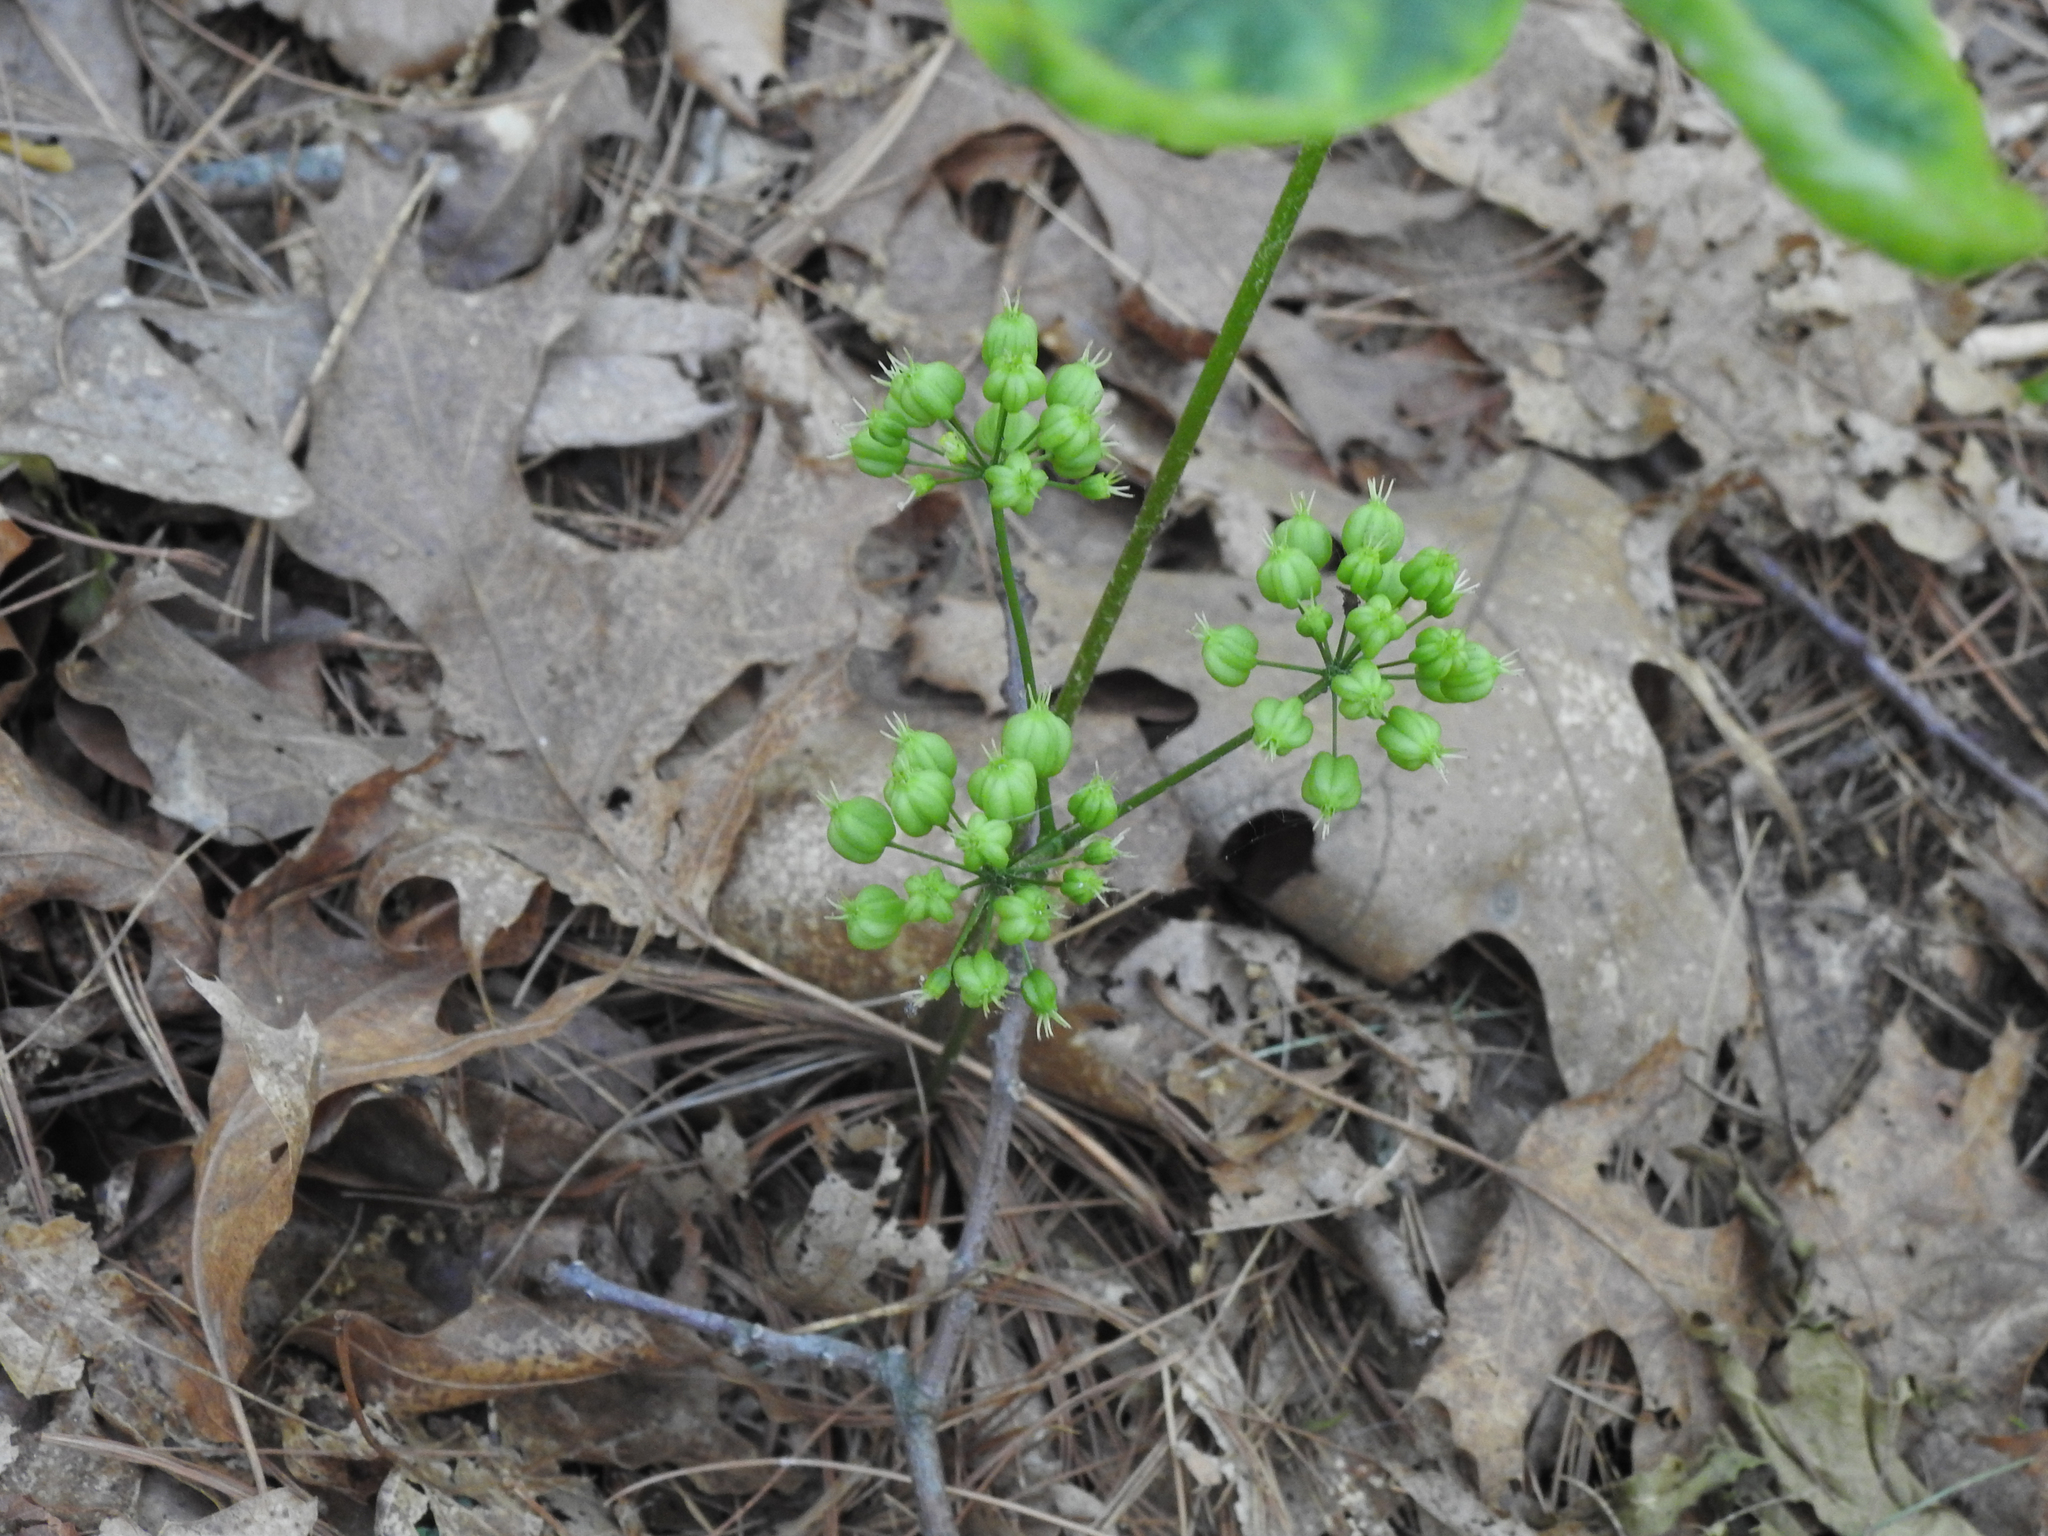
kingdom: Plantae
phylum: Tracheophyta
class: Magnoliopsida
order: Apiales
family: Araliaceae
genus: Aralia
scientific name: Aralia nudicaulis
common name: Wild sarsaparilla
